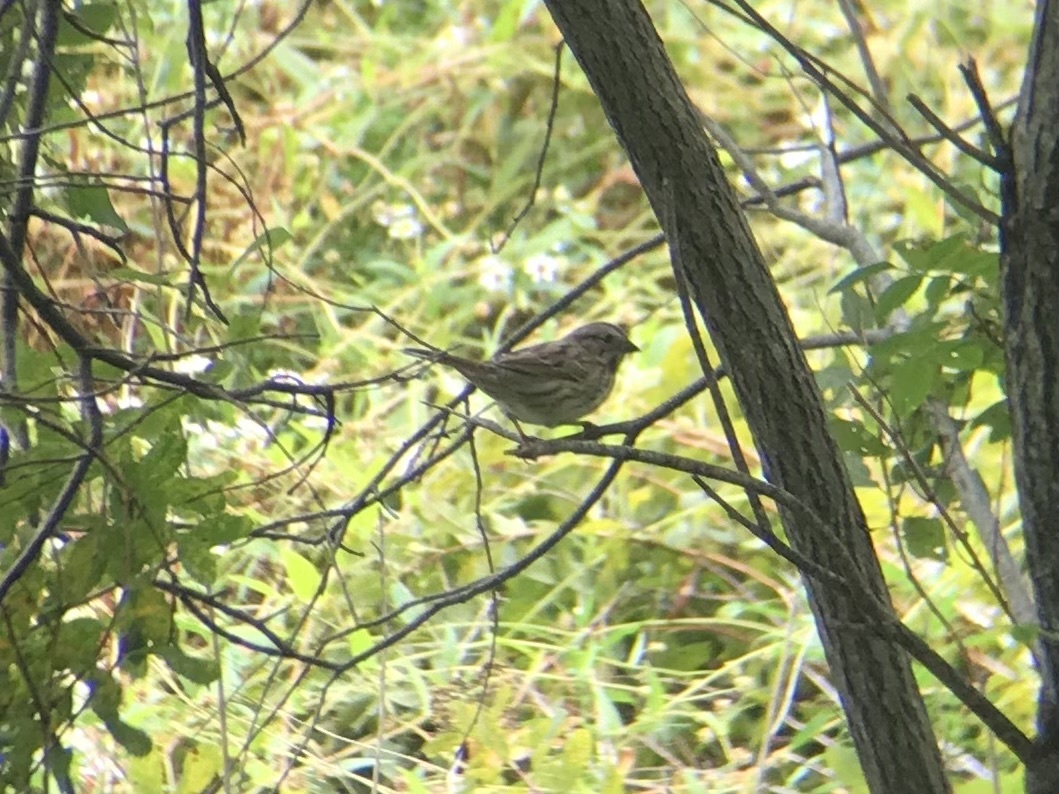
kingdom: Animalia
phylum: Chordata
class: Aves
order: Passeriformes
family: Passerellidae
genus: Melospiza
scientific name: Melospiza melodia
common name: Song sparrow
